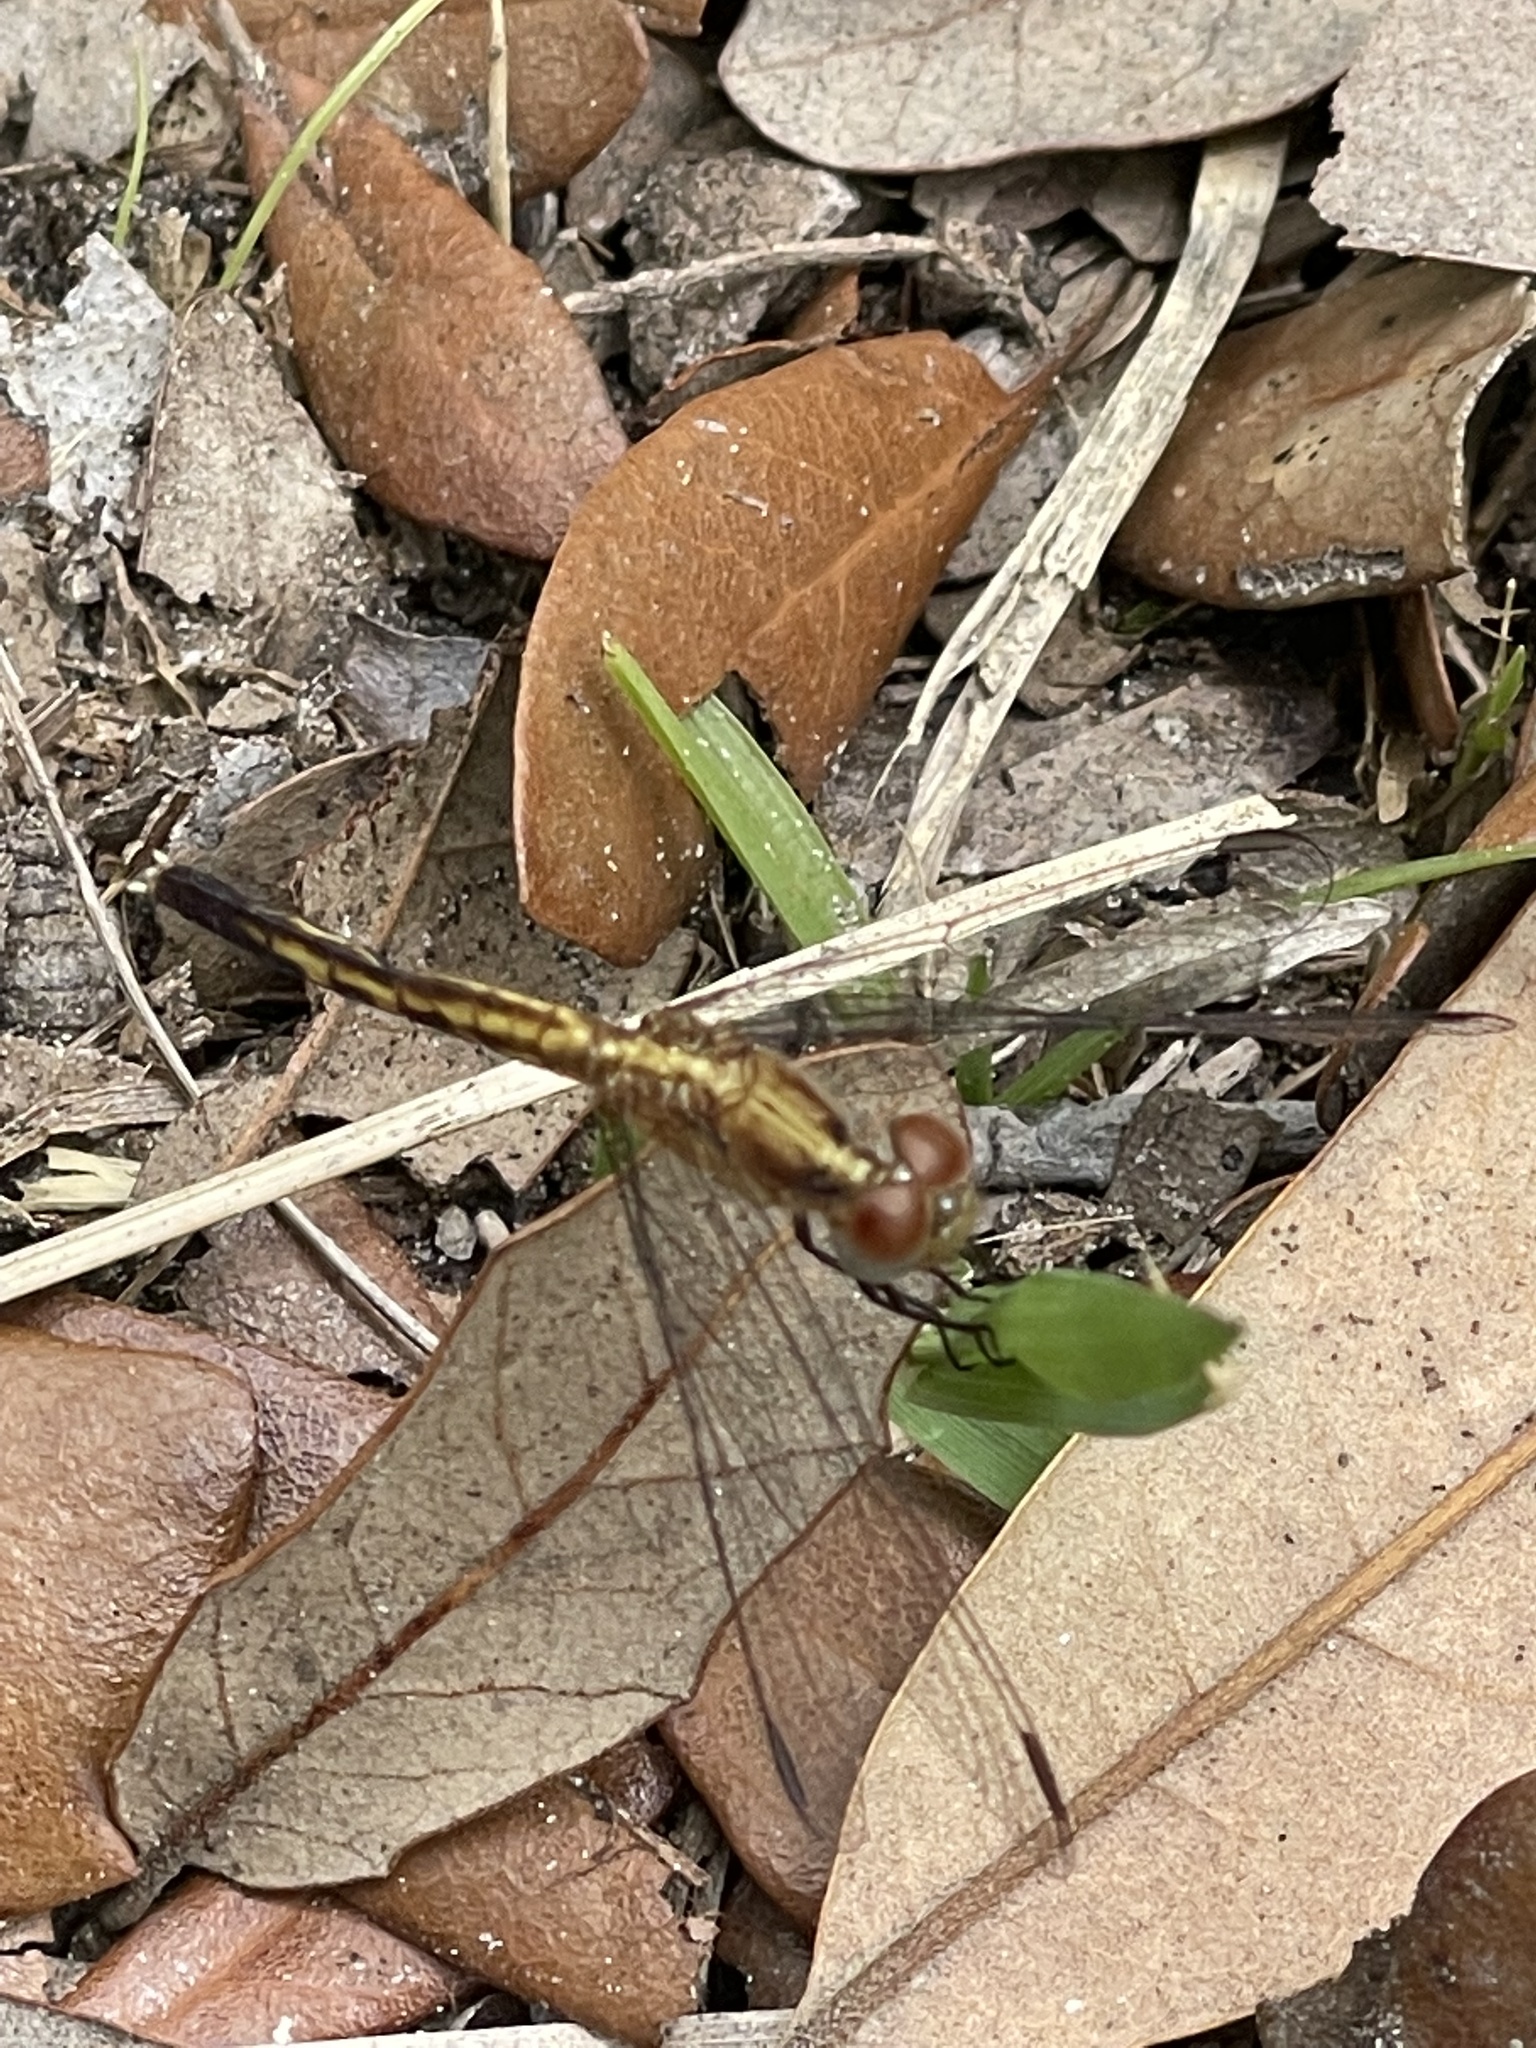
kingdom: Animalia
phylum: Arthropoda
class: Insecta
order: Odonata
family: Libellulidae
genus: Erythrodiplax
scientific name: Erythrodiplax minuscula
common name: Little blue dragonlet
